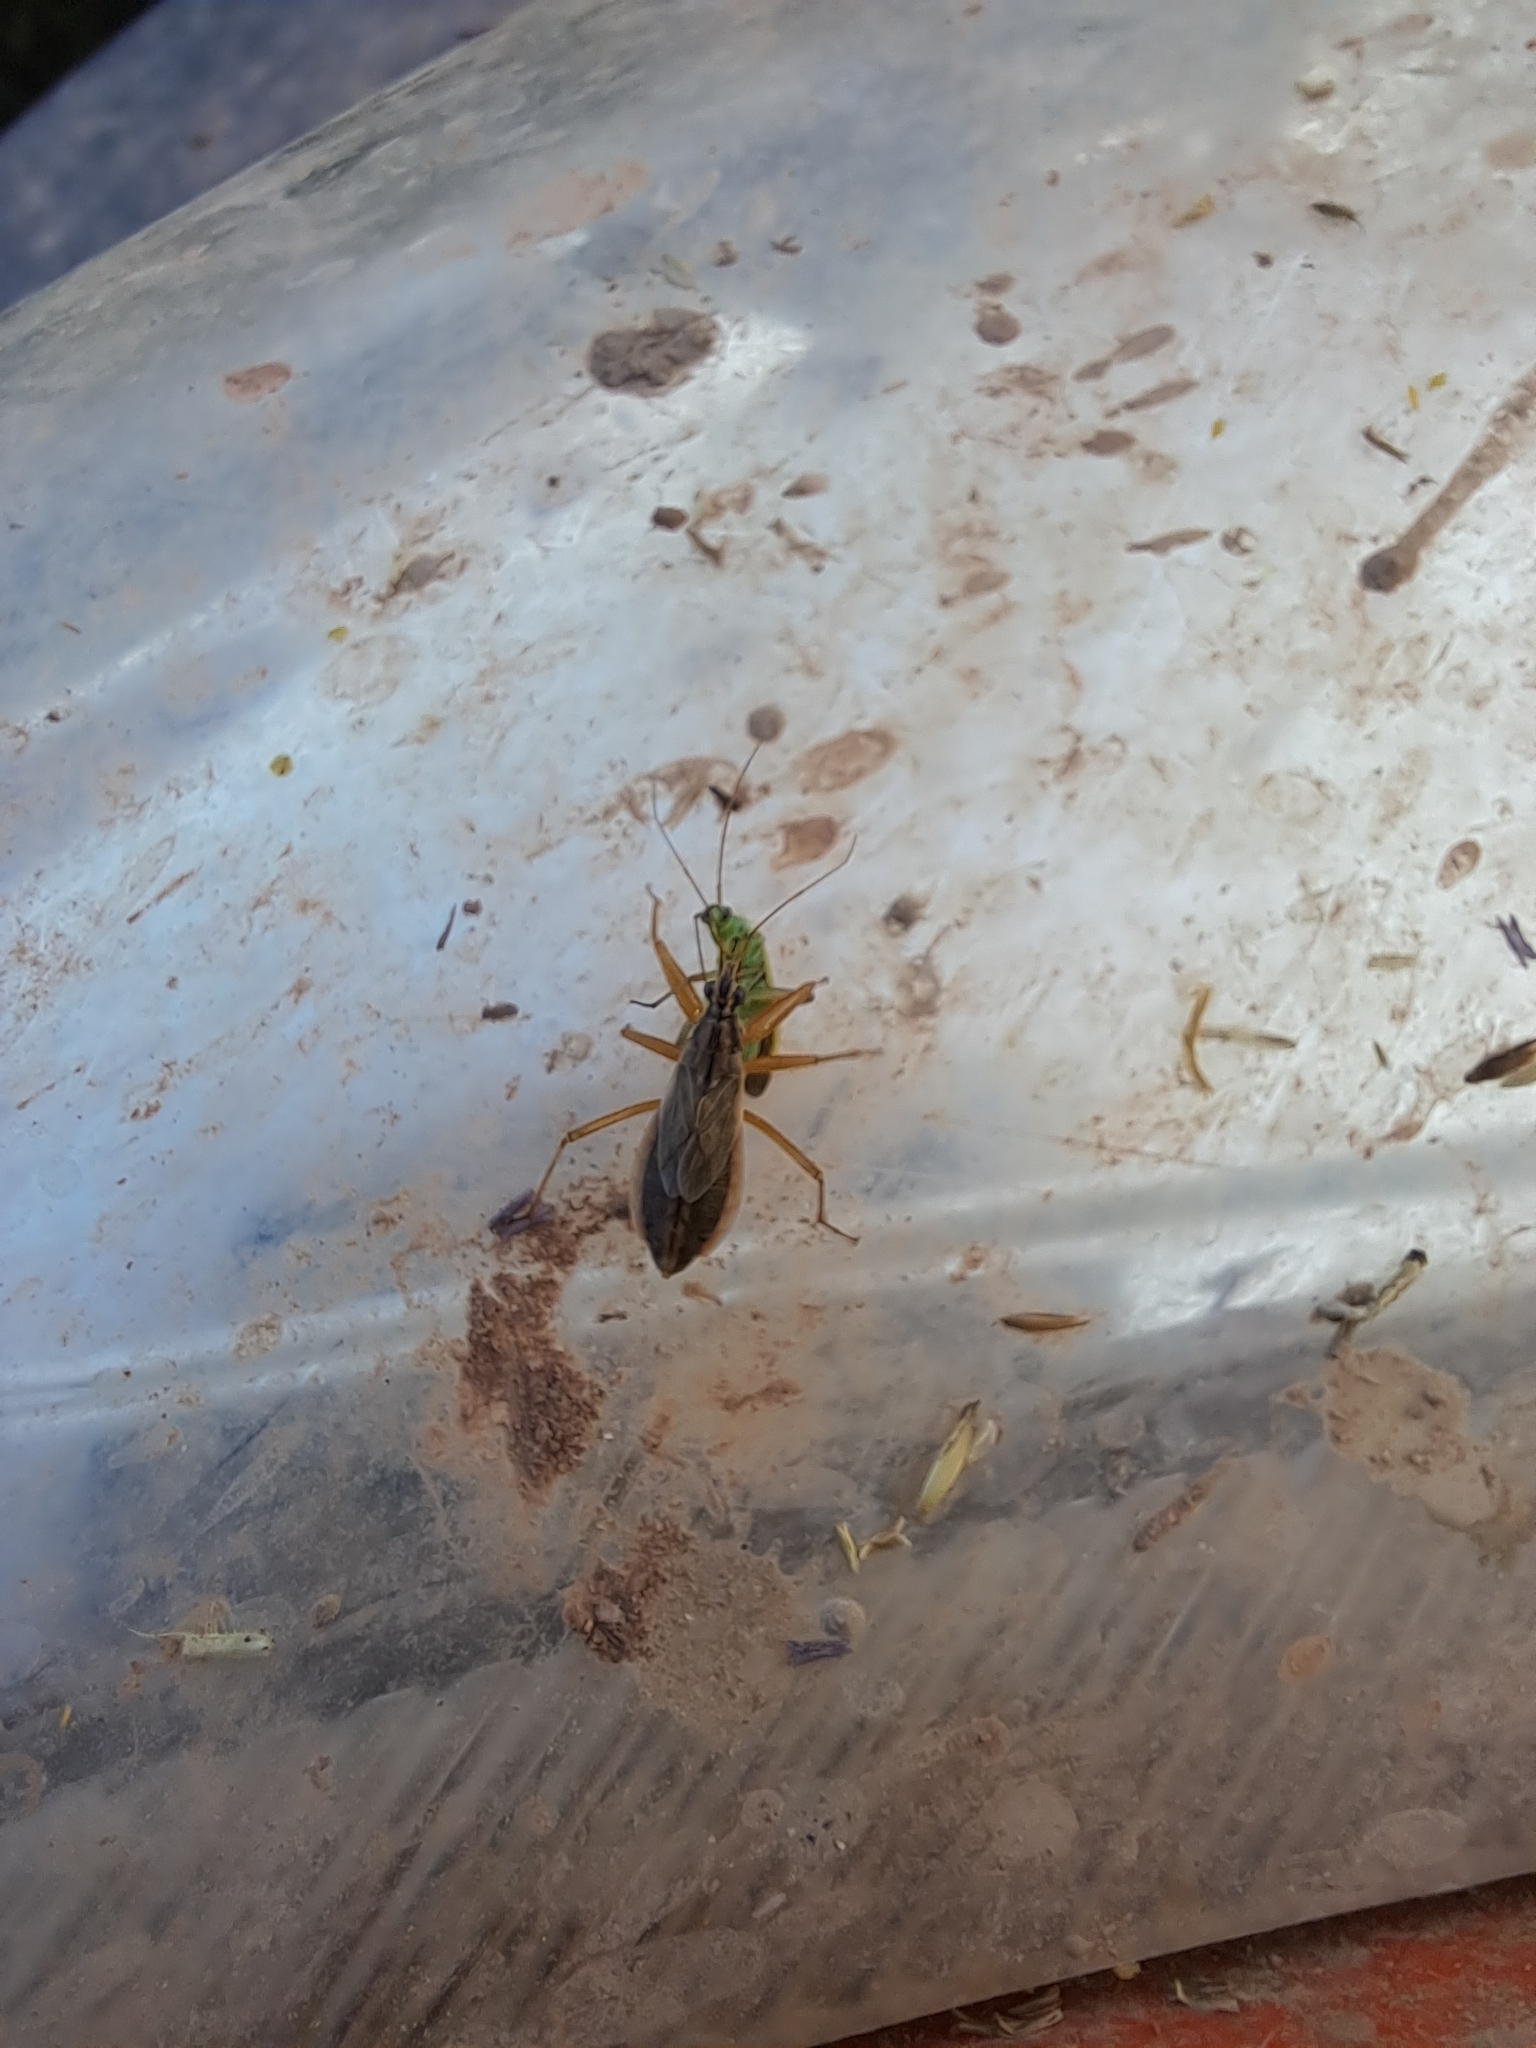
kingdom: Animalia
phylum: Arthropoda
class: Insecta
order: Hemiptera
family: Nabidae
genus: Nabis
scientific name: Nabis flavomarginatus
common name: Broad damselbug
